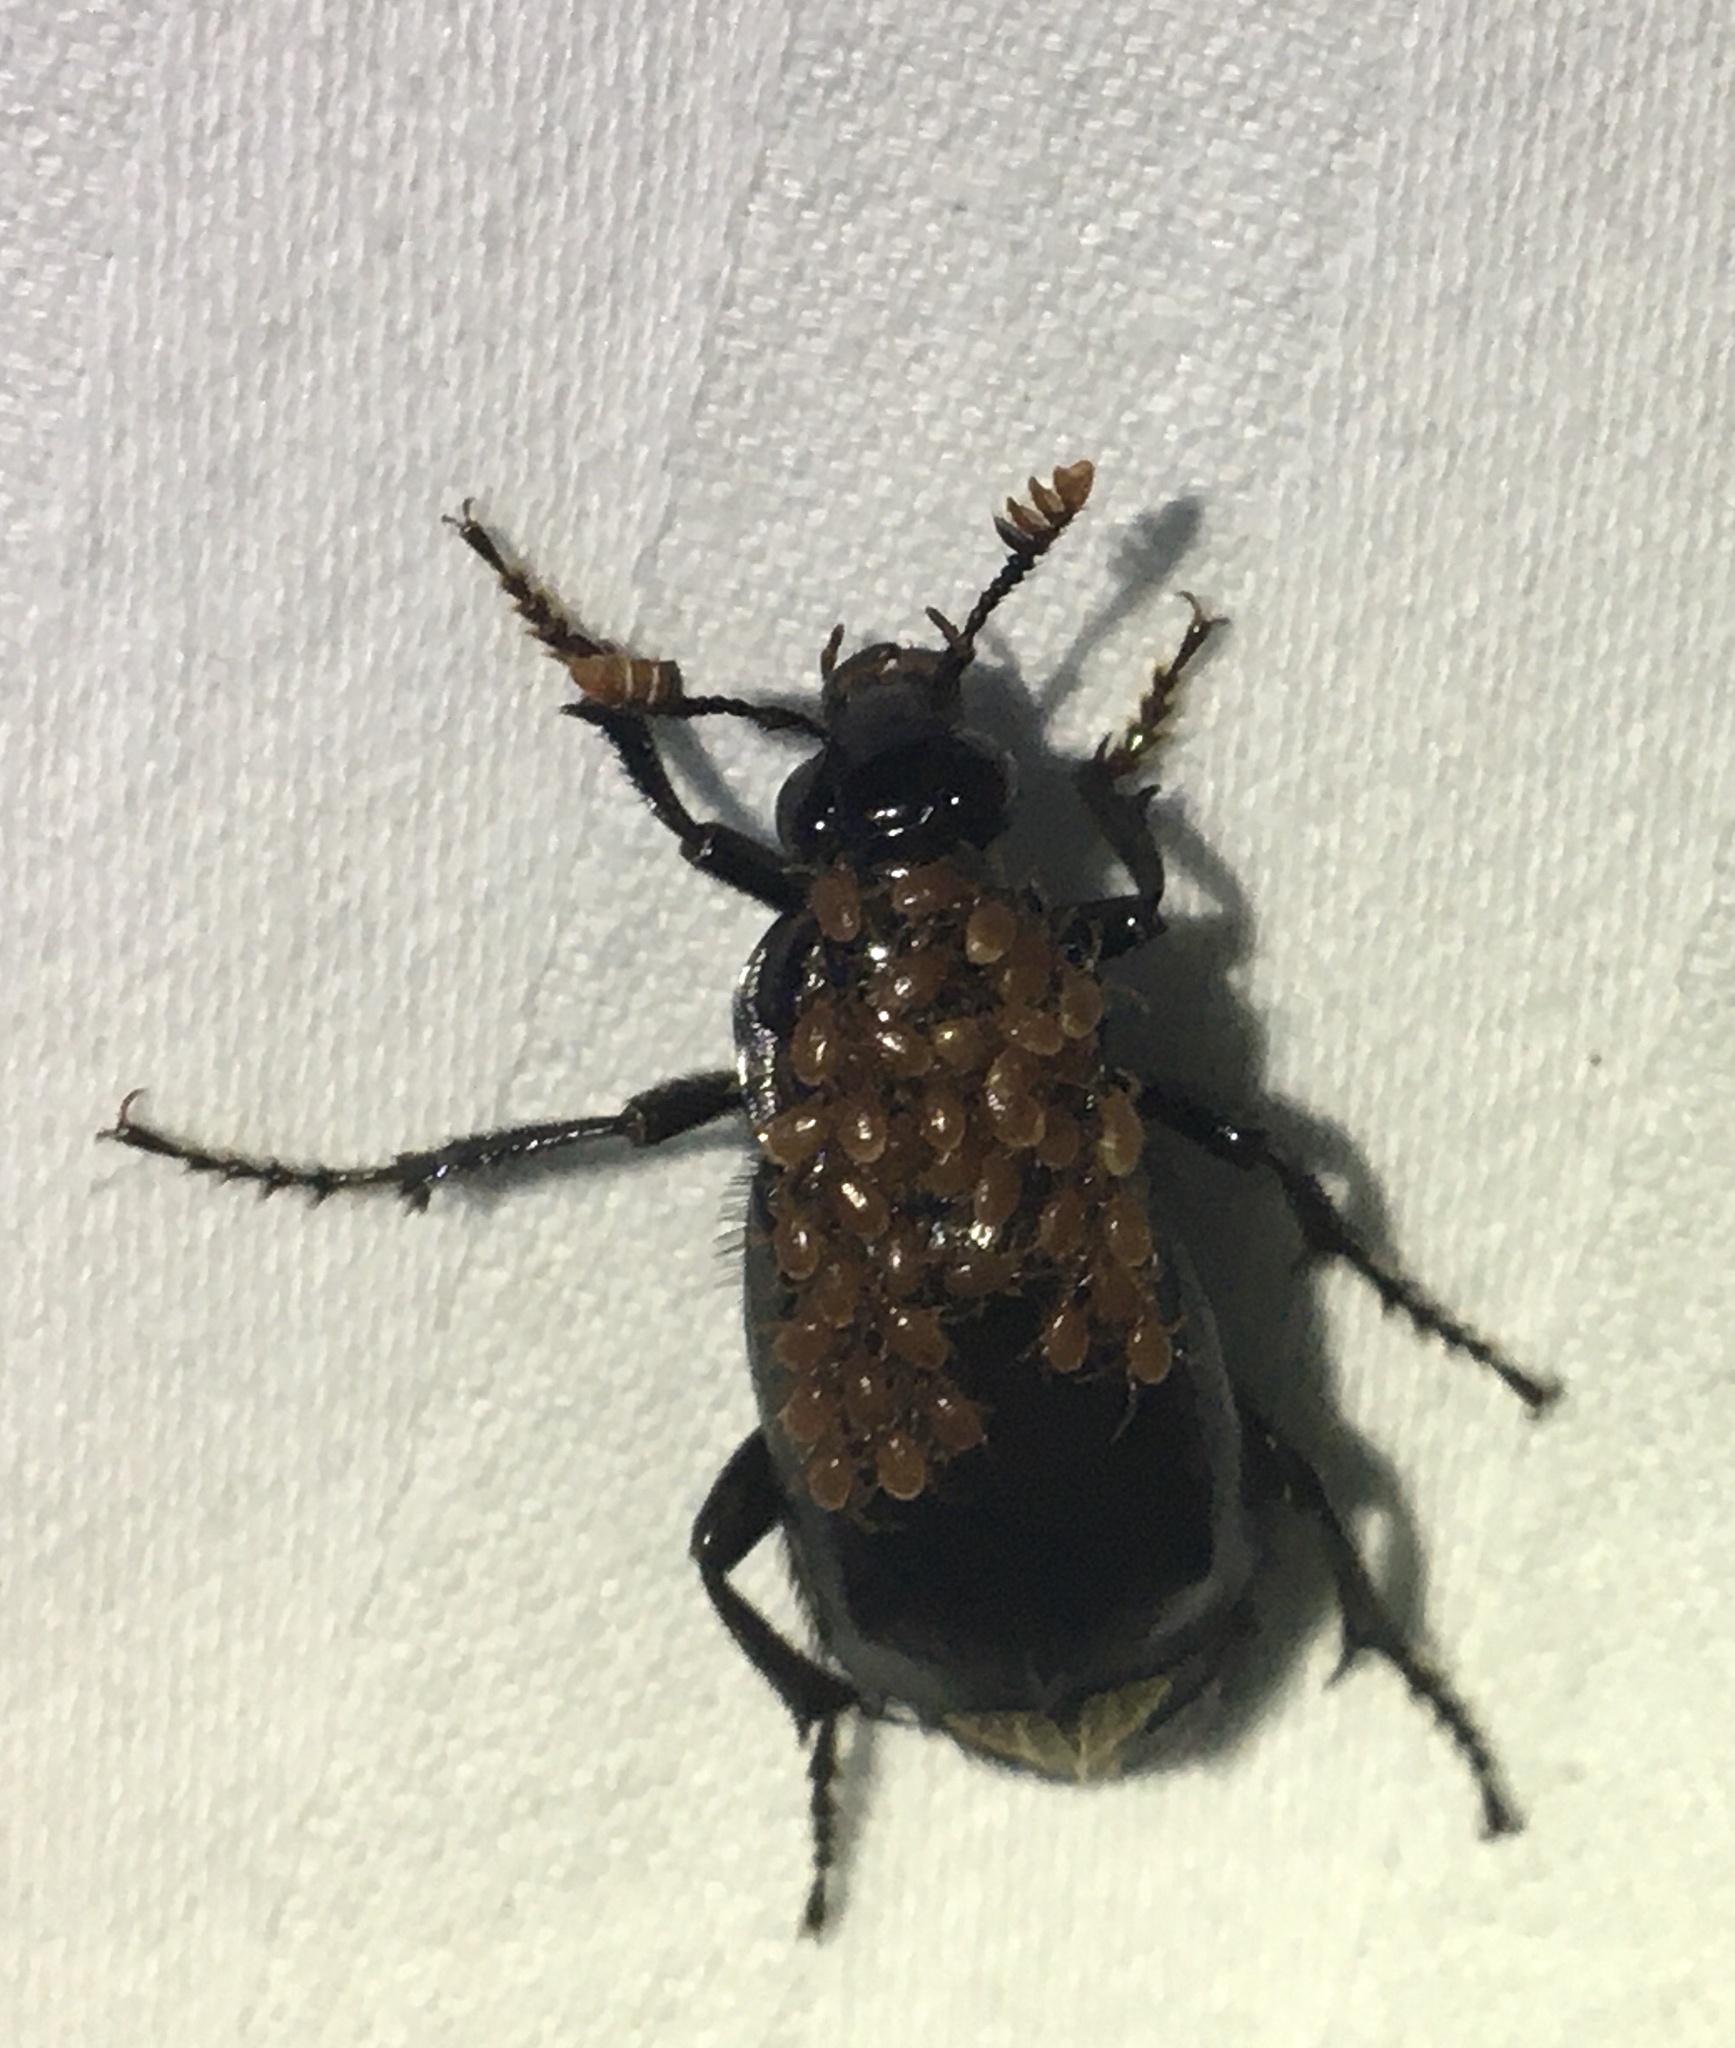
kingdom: Animalia
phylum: Arthropoda
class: Insecta
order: Coleoptera
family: Staphylinidae
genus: Nicrophorus
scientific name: Nicrophorus humator
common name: Black sexton beetle
